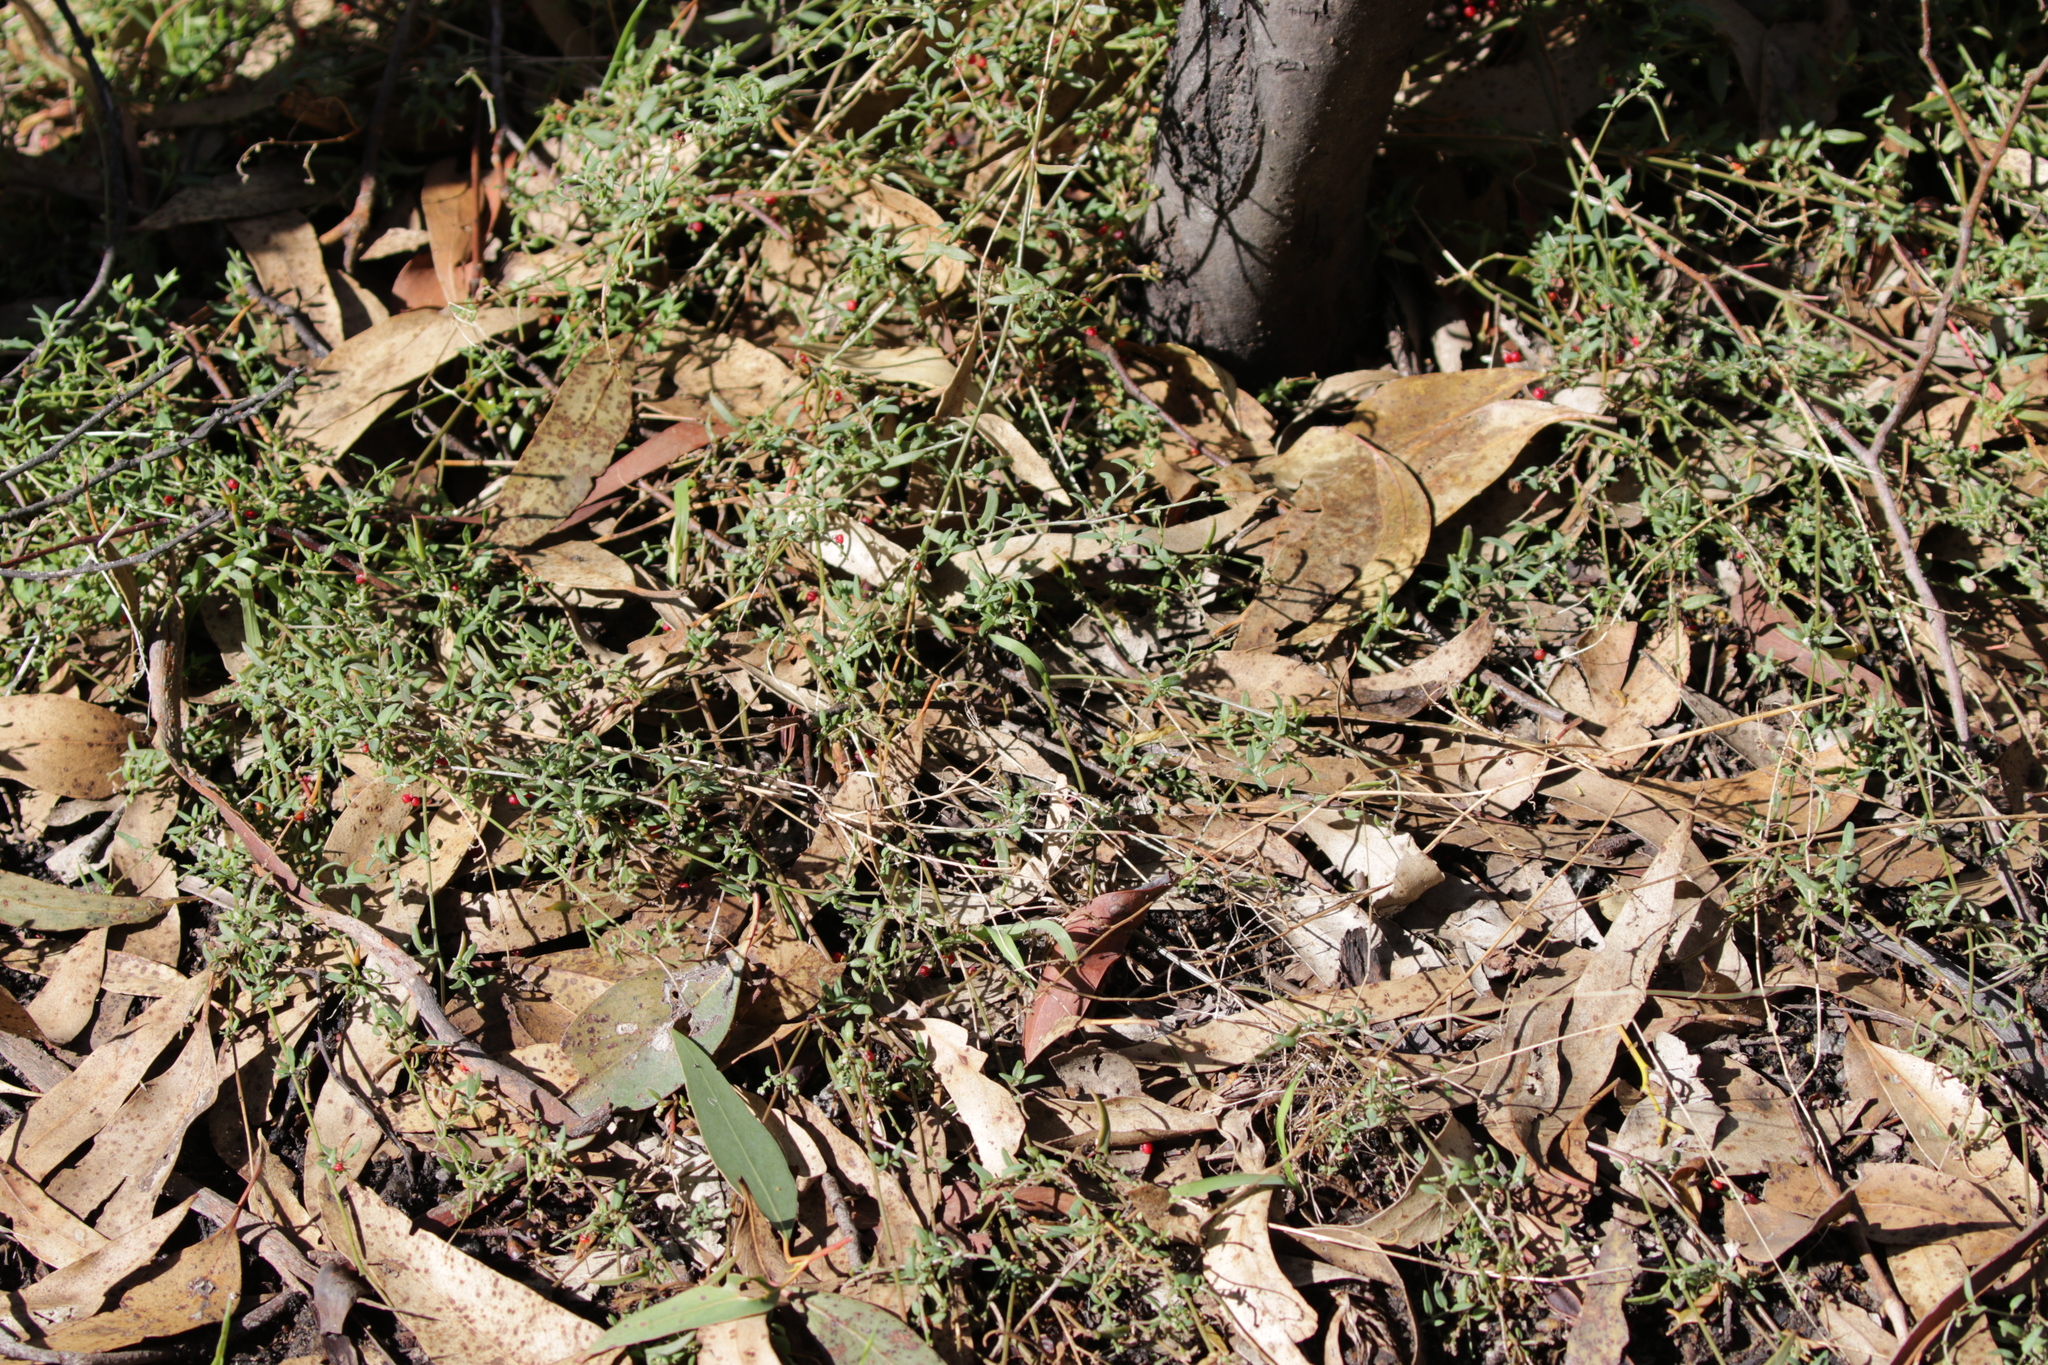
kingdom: Plantae
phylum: Tracheophyta
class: Magnoliopsida
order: Caryophyllales
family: Amaranthaceae
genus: Chenopodium
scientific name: Chenopodium nutans
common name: Climbing-saltbush
